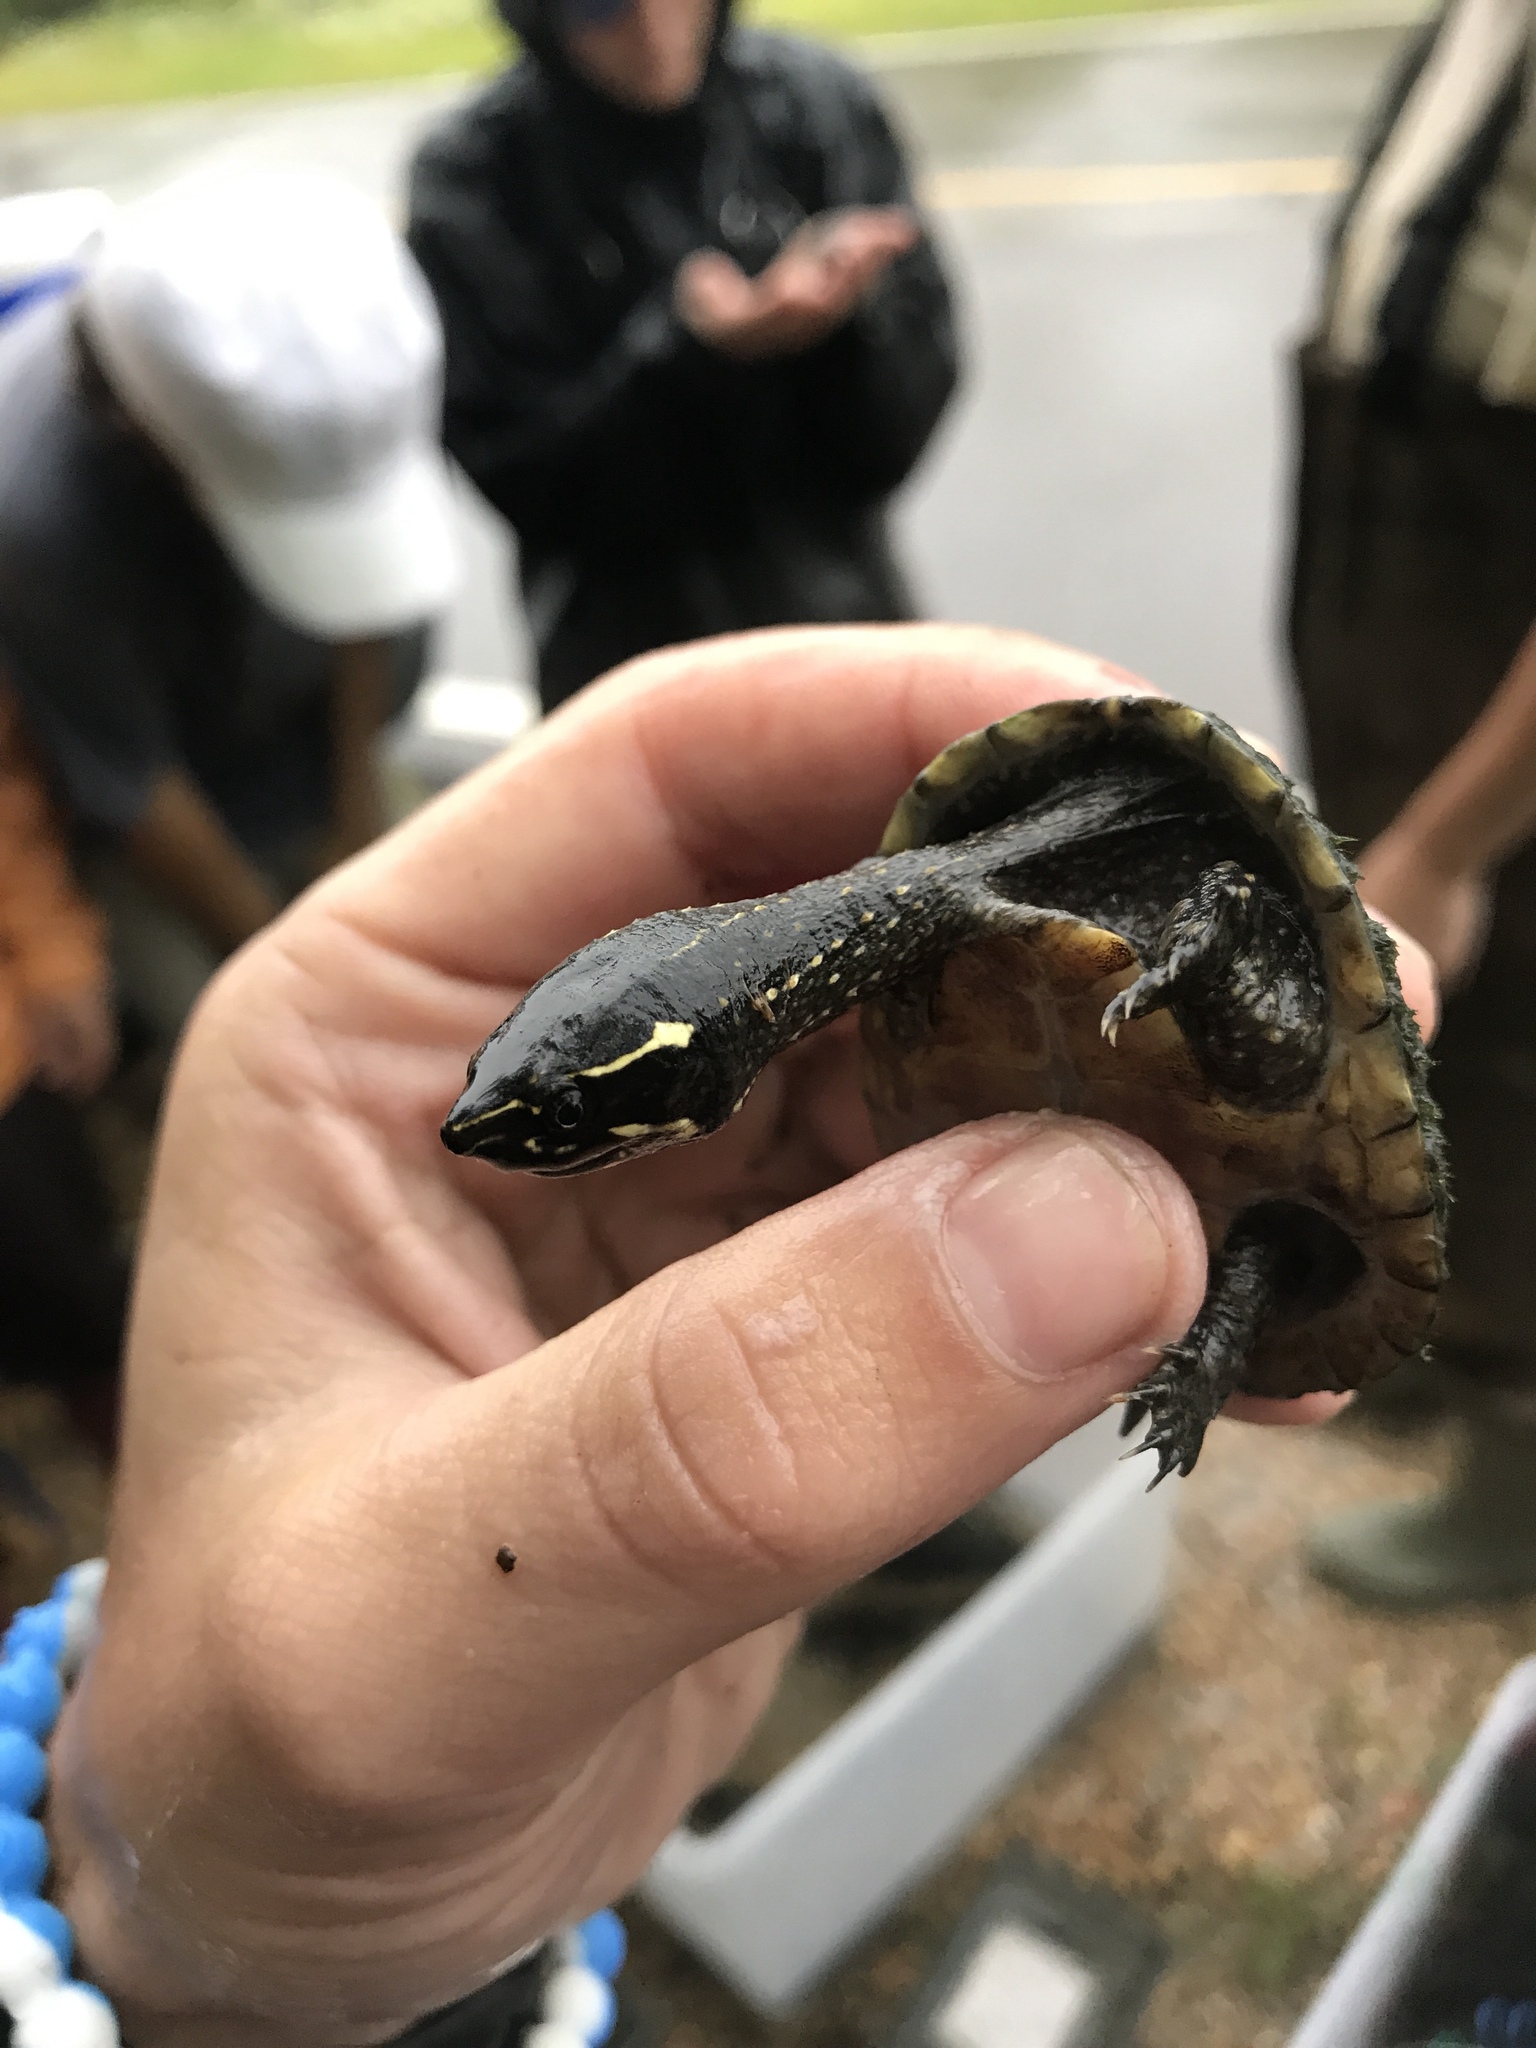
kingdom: Animalia
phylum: Chordata
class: Testudines
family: Kinosternidae
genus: Sternotherus
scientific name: Sternotherus odoratus
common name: Common musk turtle
